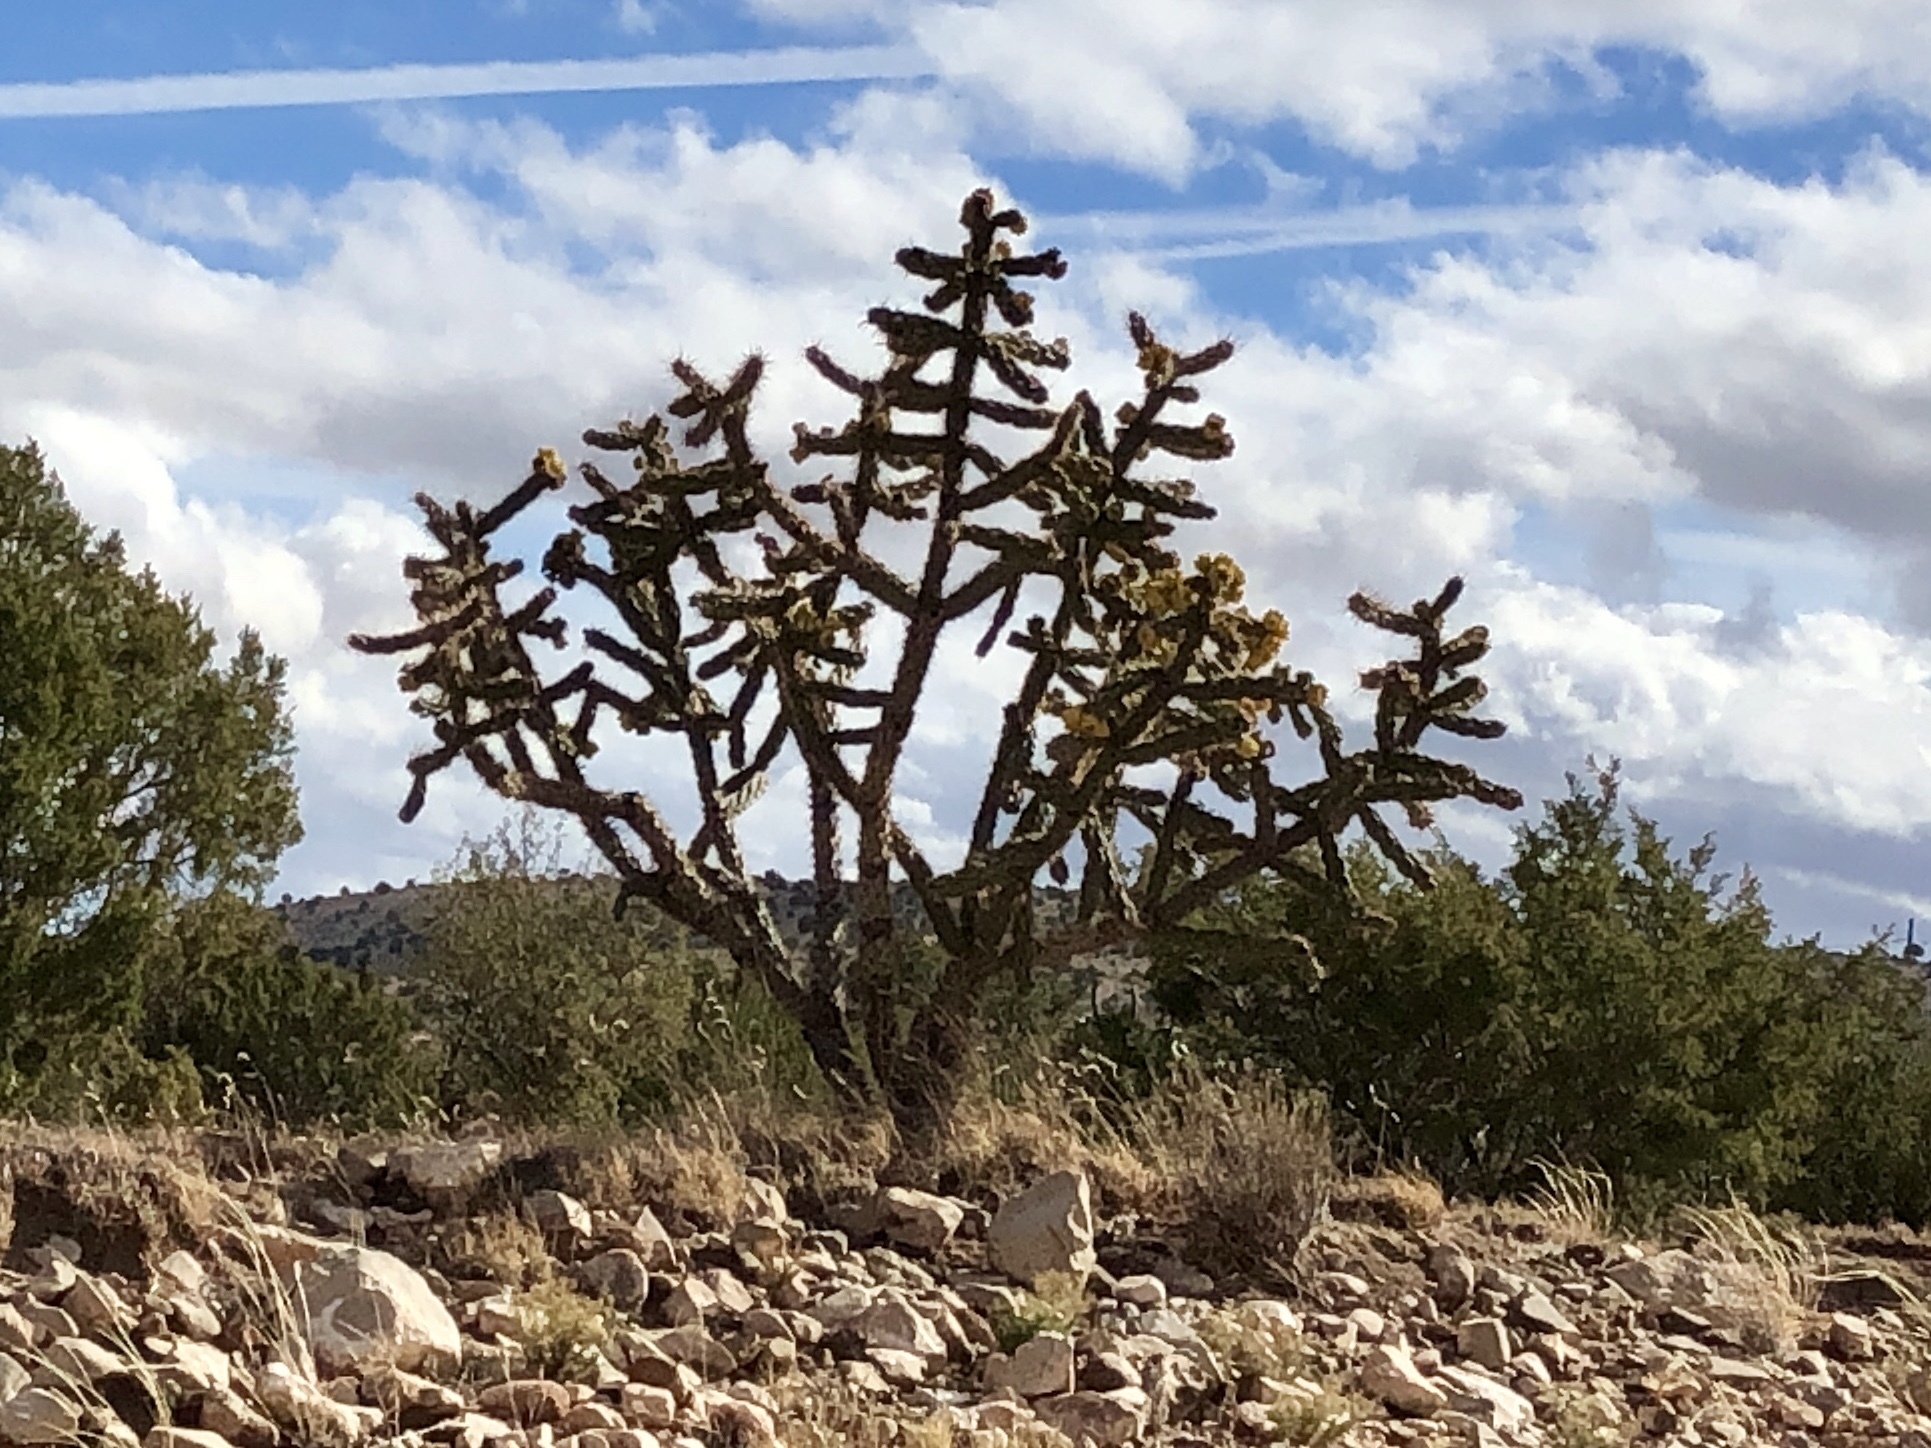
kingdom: Plantae
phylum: Tracheophyta
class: Magnoliopsida
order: Caryophyllales
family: Cactaceae
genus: Cylindropuntia
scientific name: Cylindropuntia imbricata
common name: Candelabrum cactus
